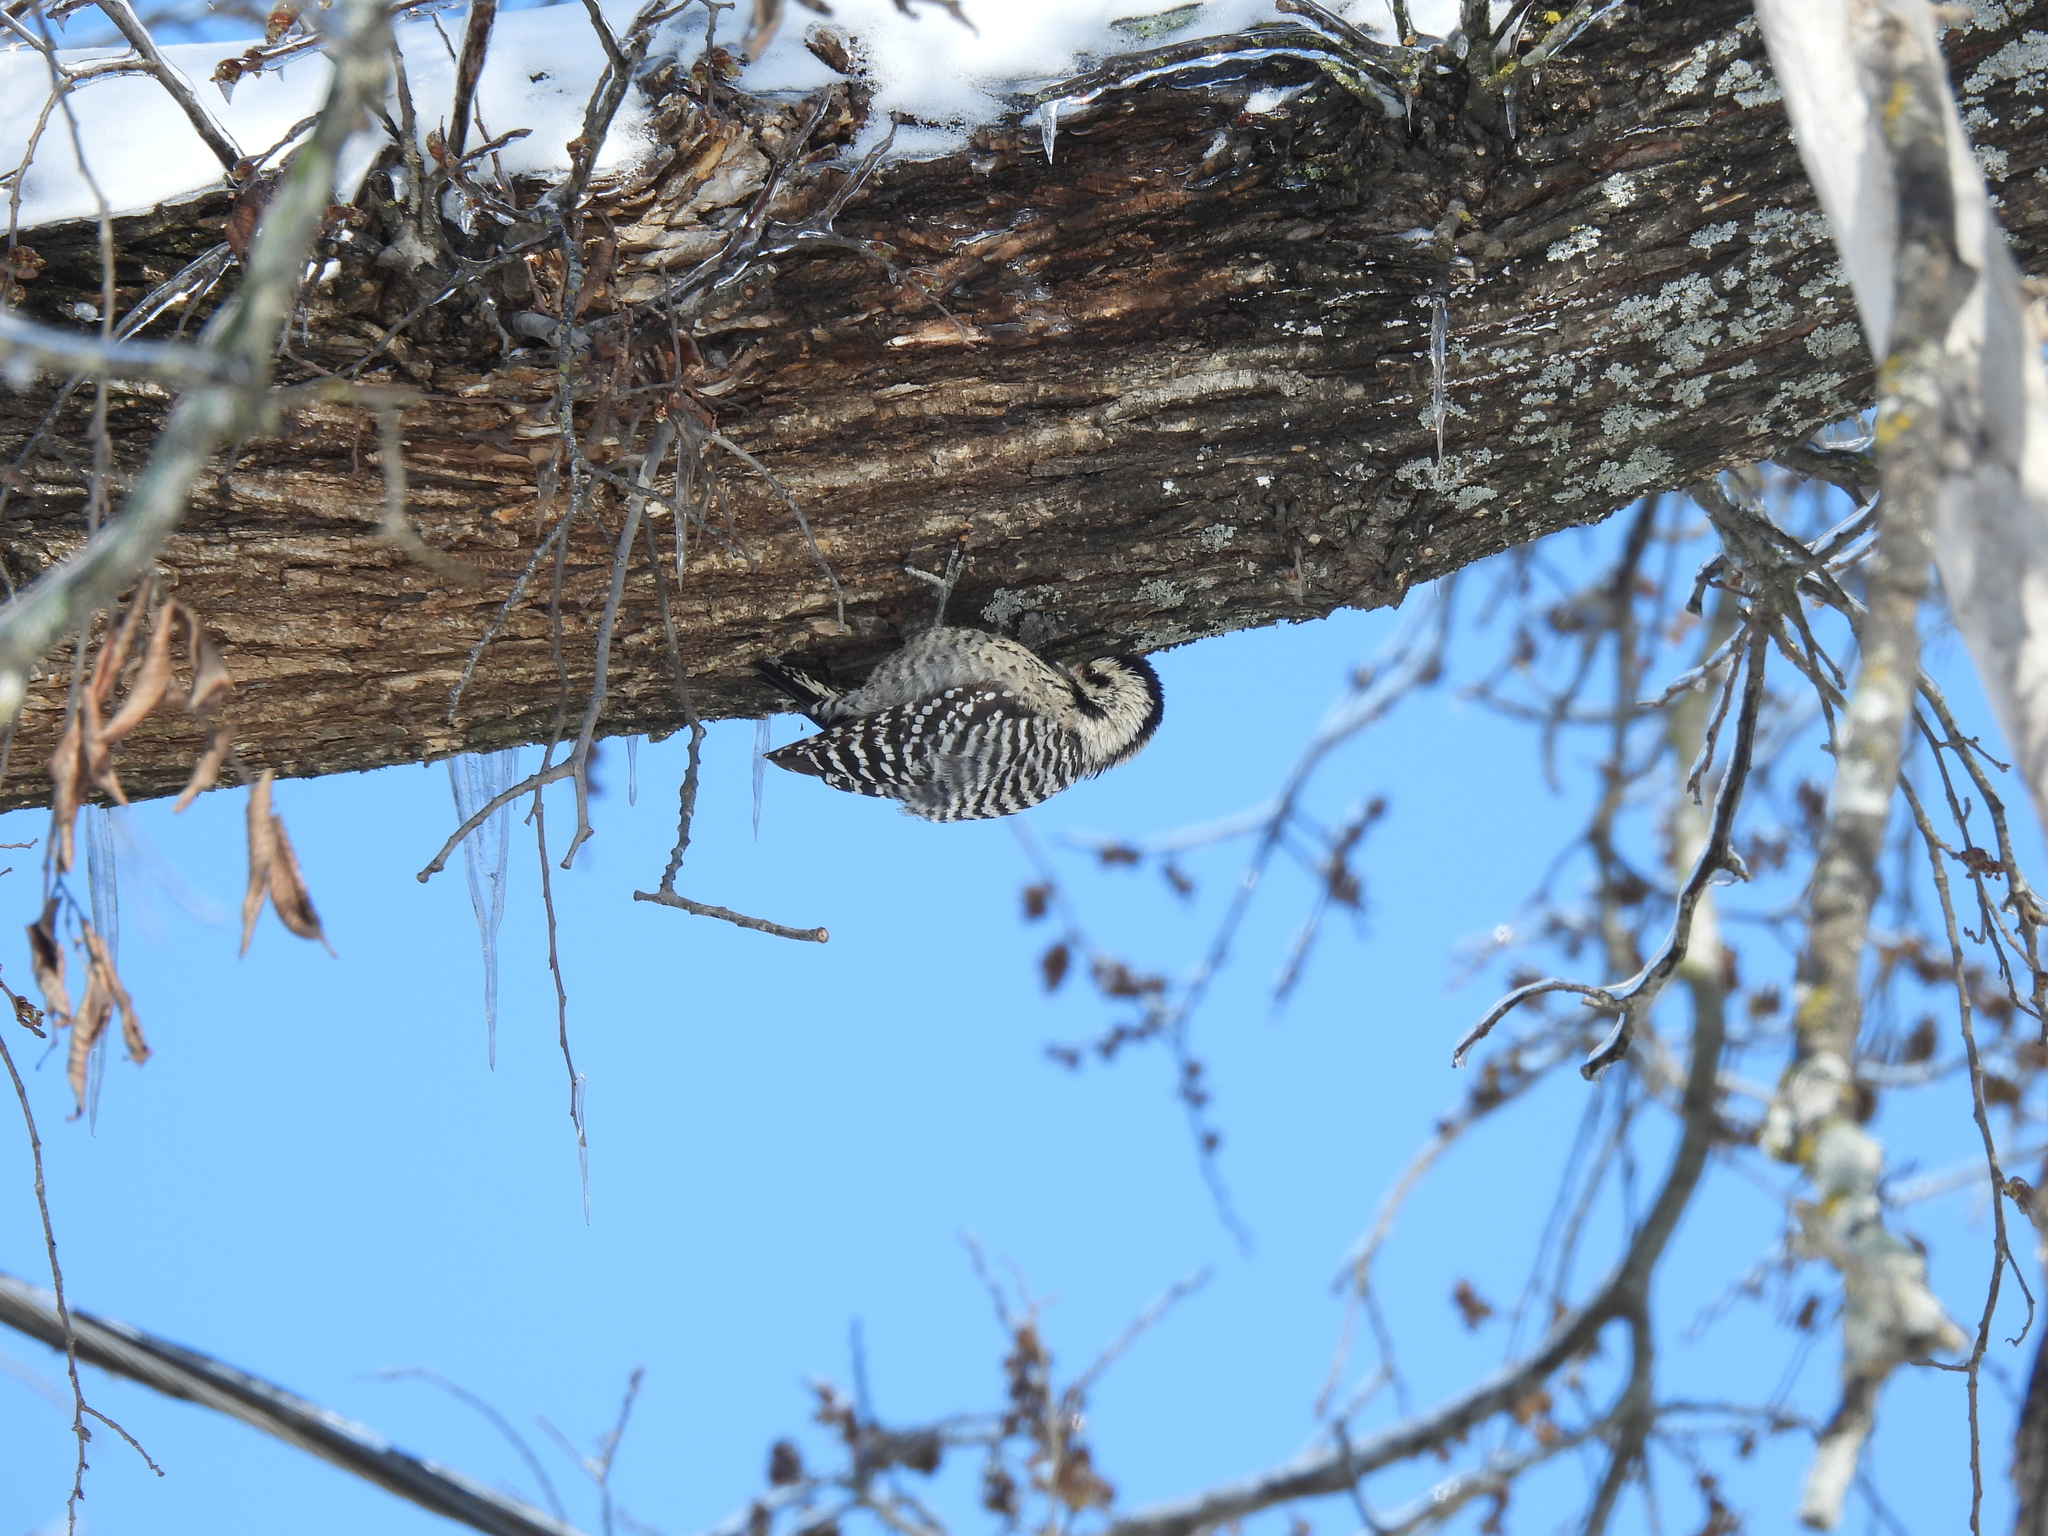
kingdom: Animalia
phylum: Chordata
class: Aves
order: Piciformes
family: Picidae
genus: Dryobates
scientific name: Dryobates scalaris
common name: Ladder-backed woodpecker
